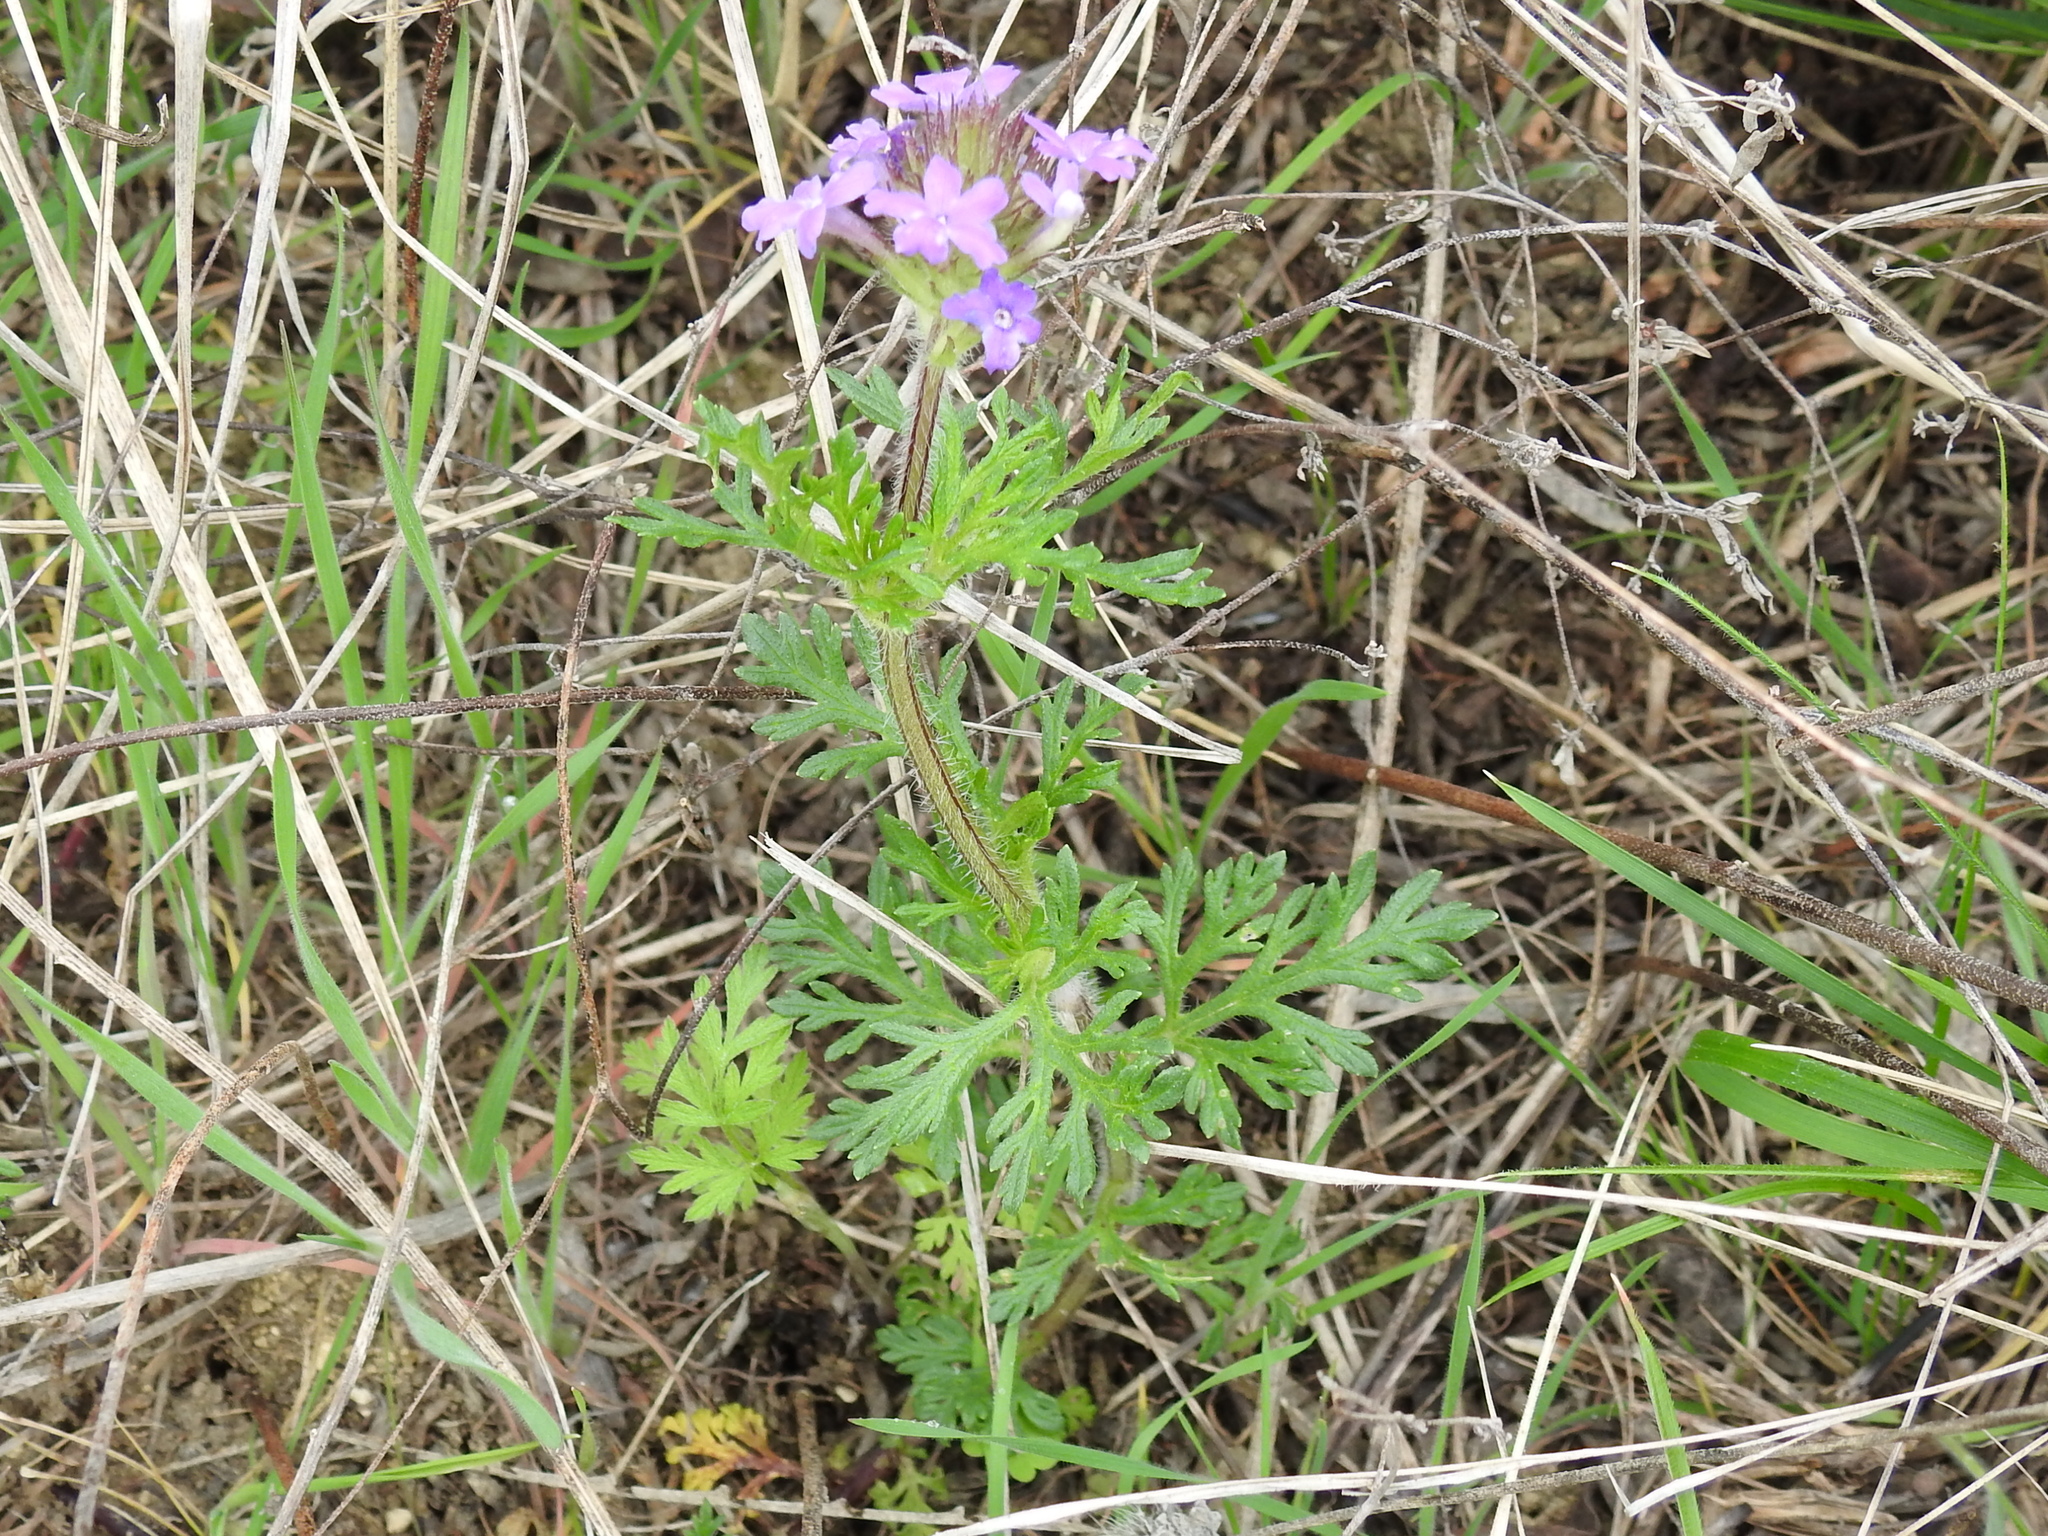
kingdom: Plantae
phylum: Tracheophyta
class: Magnoliopsida
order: Lamiales
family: Verbenaceae
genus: Verbena
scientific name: Verbena bipinnatifida
